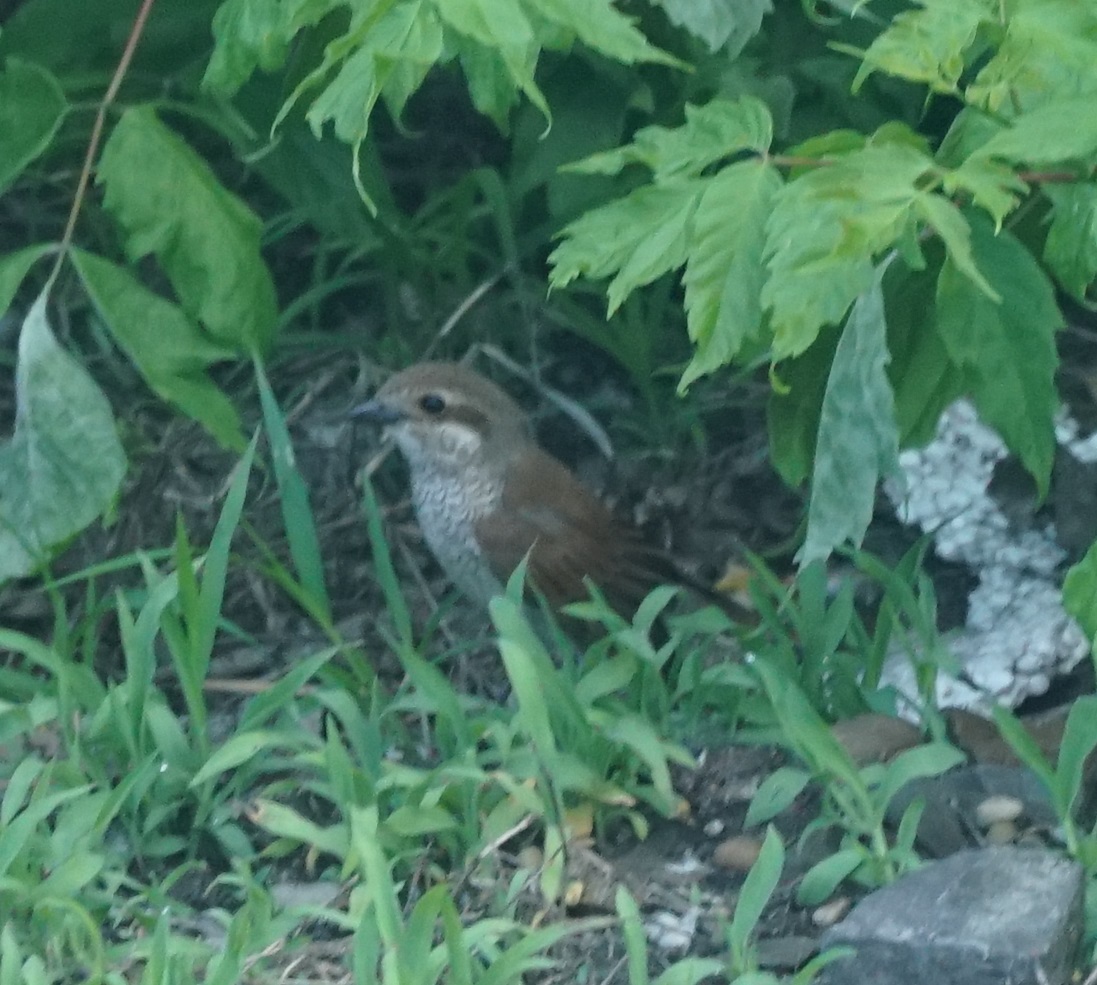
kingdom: Animalia
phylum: Chordata
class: Aves
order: Passeriformes
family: Laniidae
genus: Lanius
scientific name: Lanius collurio
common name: Red-backed shrike
